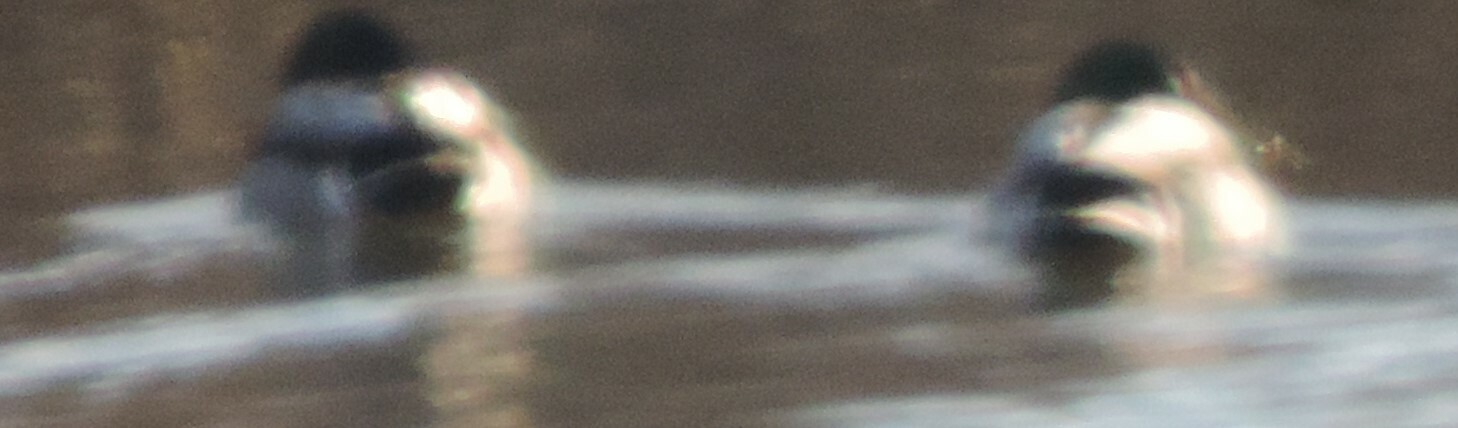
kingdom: Animalia
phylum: Chordata
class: Aves
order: Anseriformes
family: Anatidae
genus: Anas
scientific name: Anas platyrhynchos
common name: Mallard
